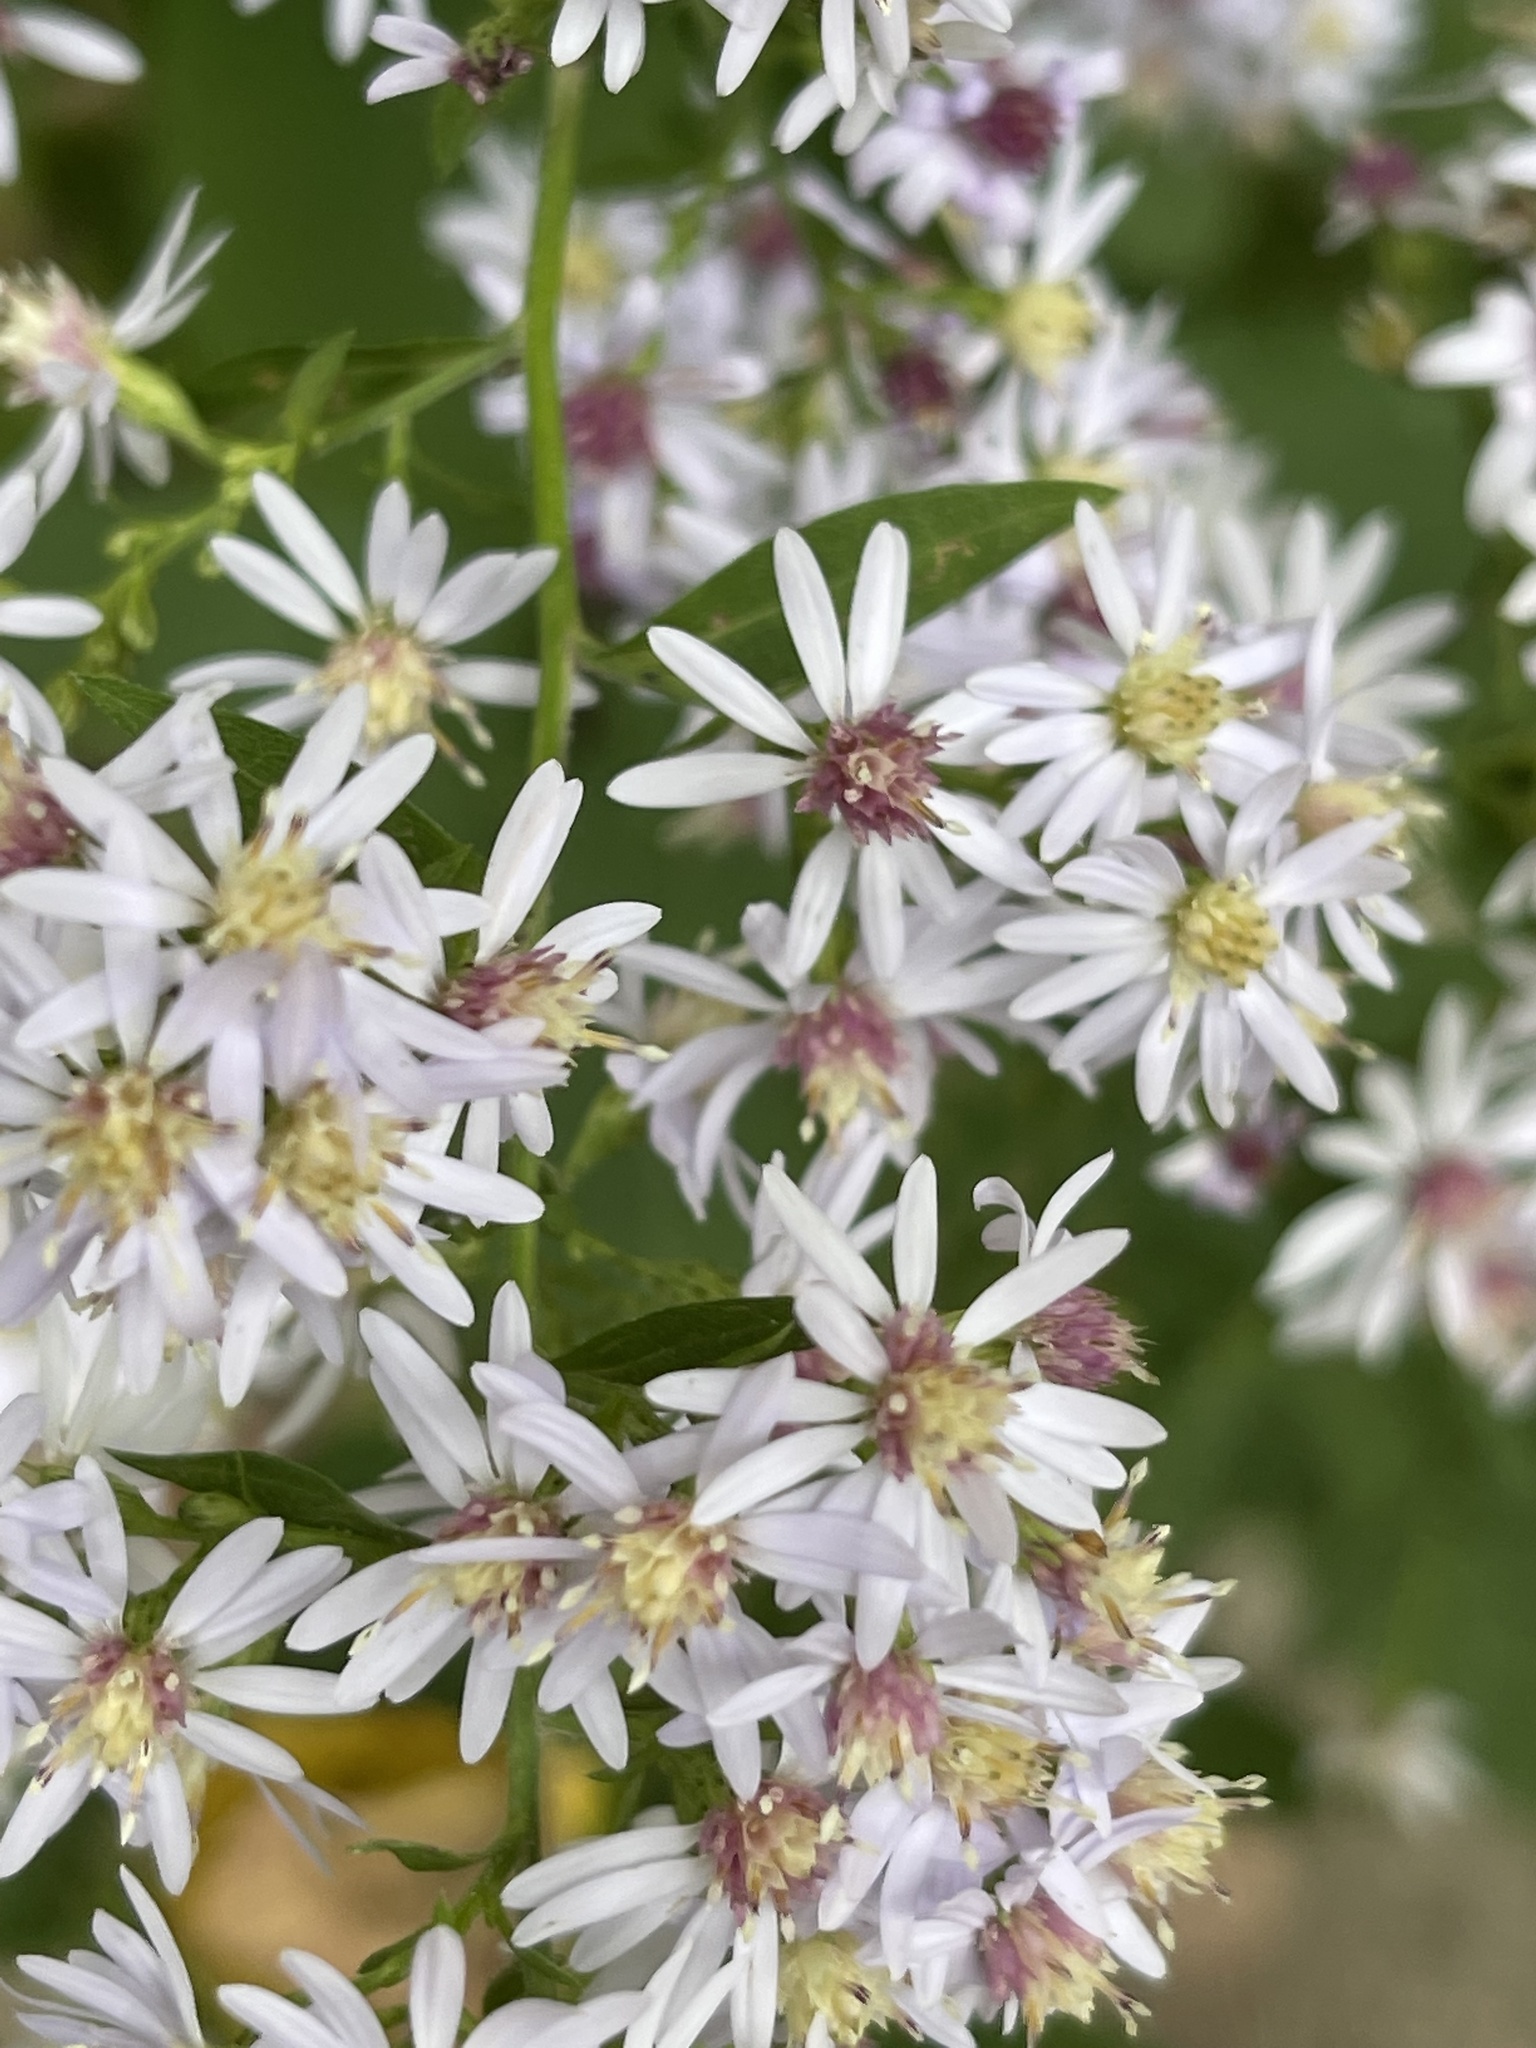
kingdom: Plantae
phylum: Tracheophyta
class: Magnoliopsida
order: Asterales
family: Asteraceae
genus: Symphyotrichum
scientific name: Symphyotrichum cordifolium
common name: Beeweed
